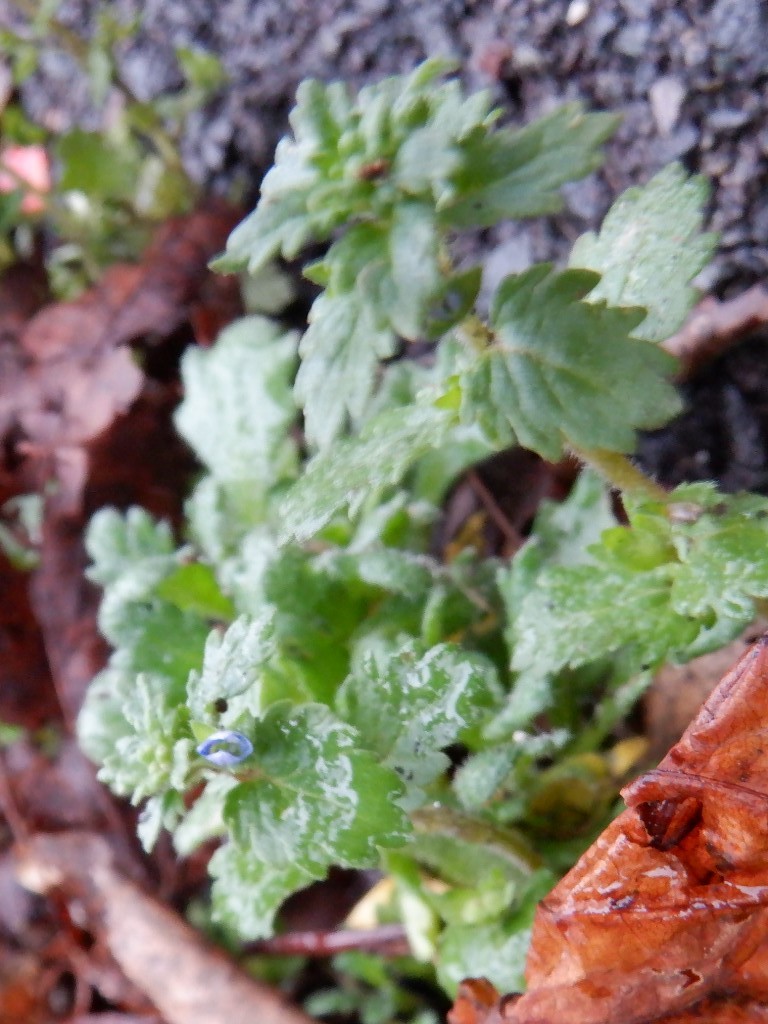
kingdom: Plantae
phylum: Tracheophyta
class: Magnoliopsida
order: Lamiales
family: Plantaginaceae
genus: Veronica
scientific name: Veronica persica
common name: Common field-speedwell
